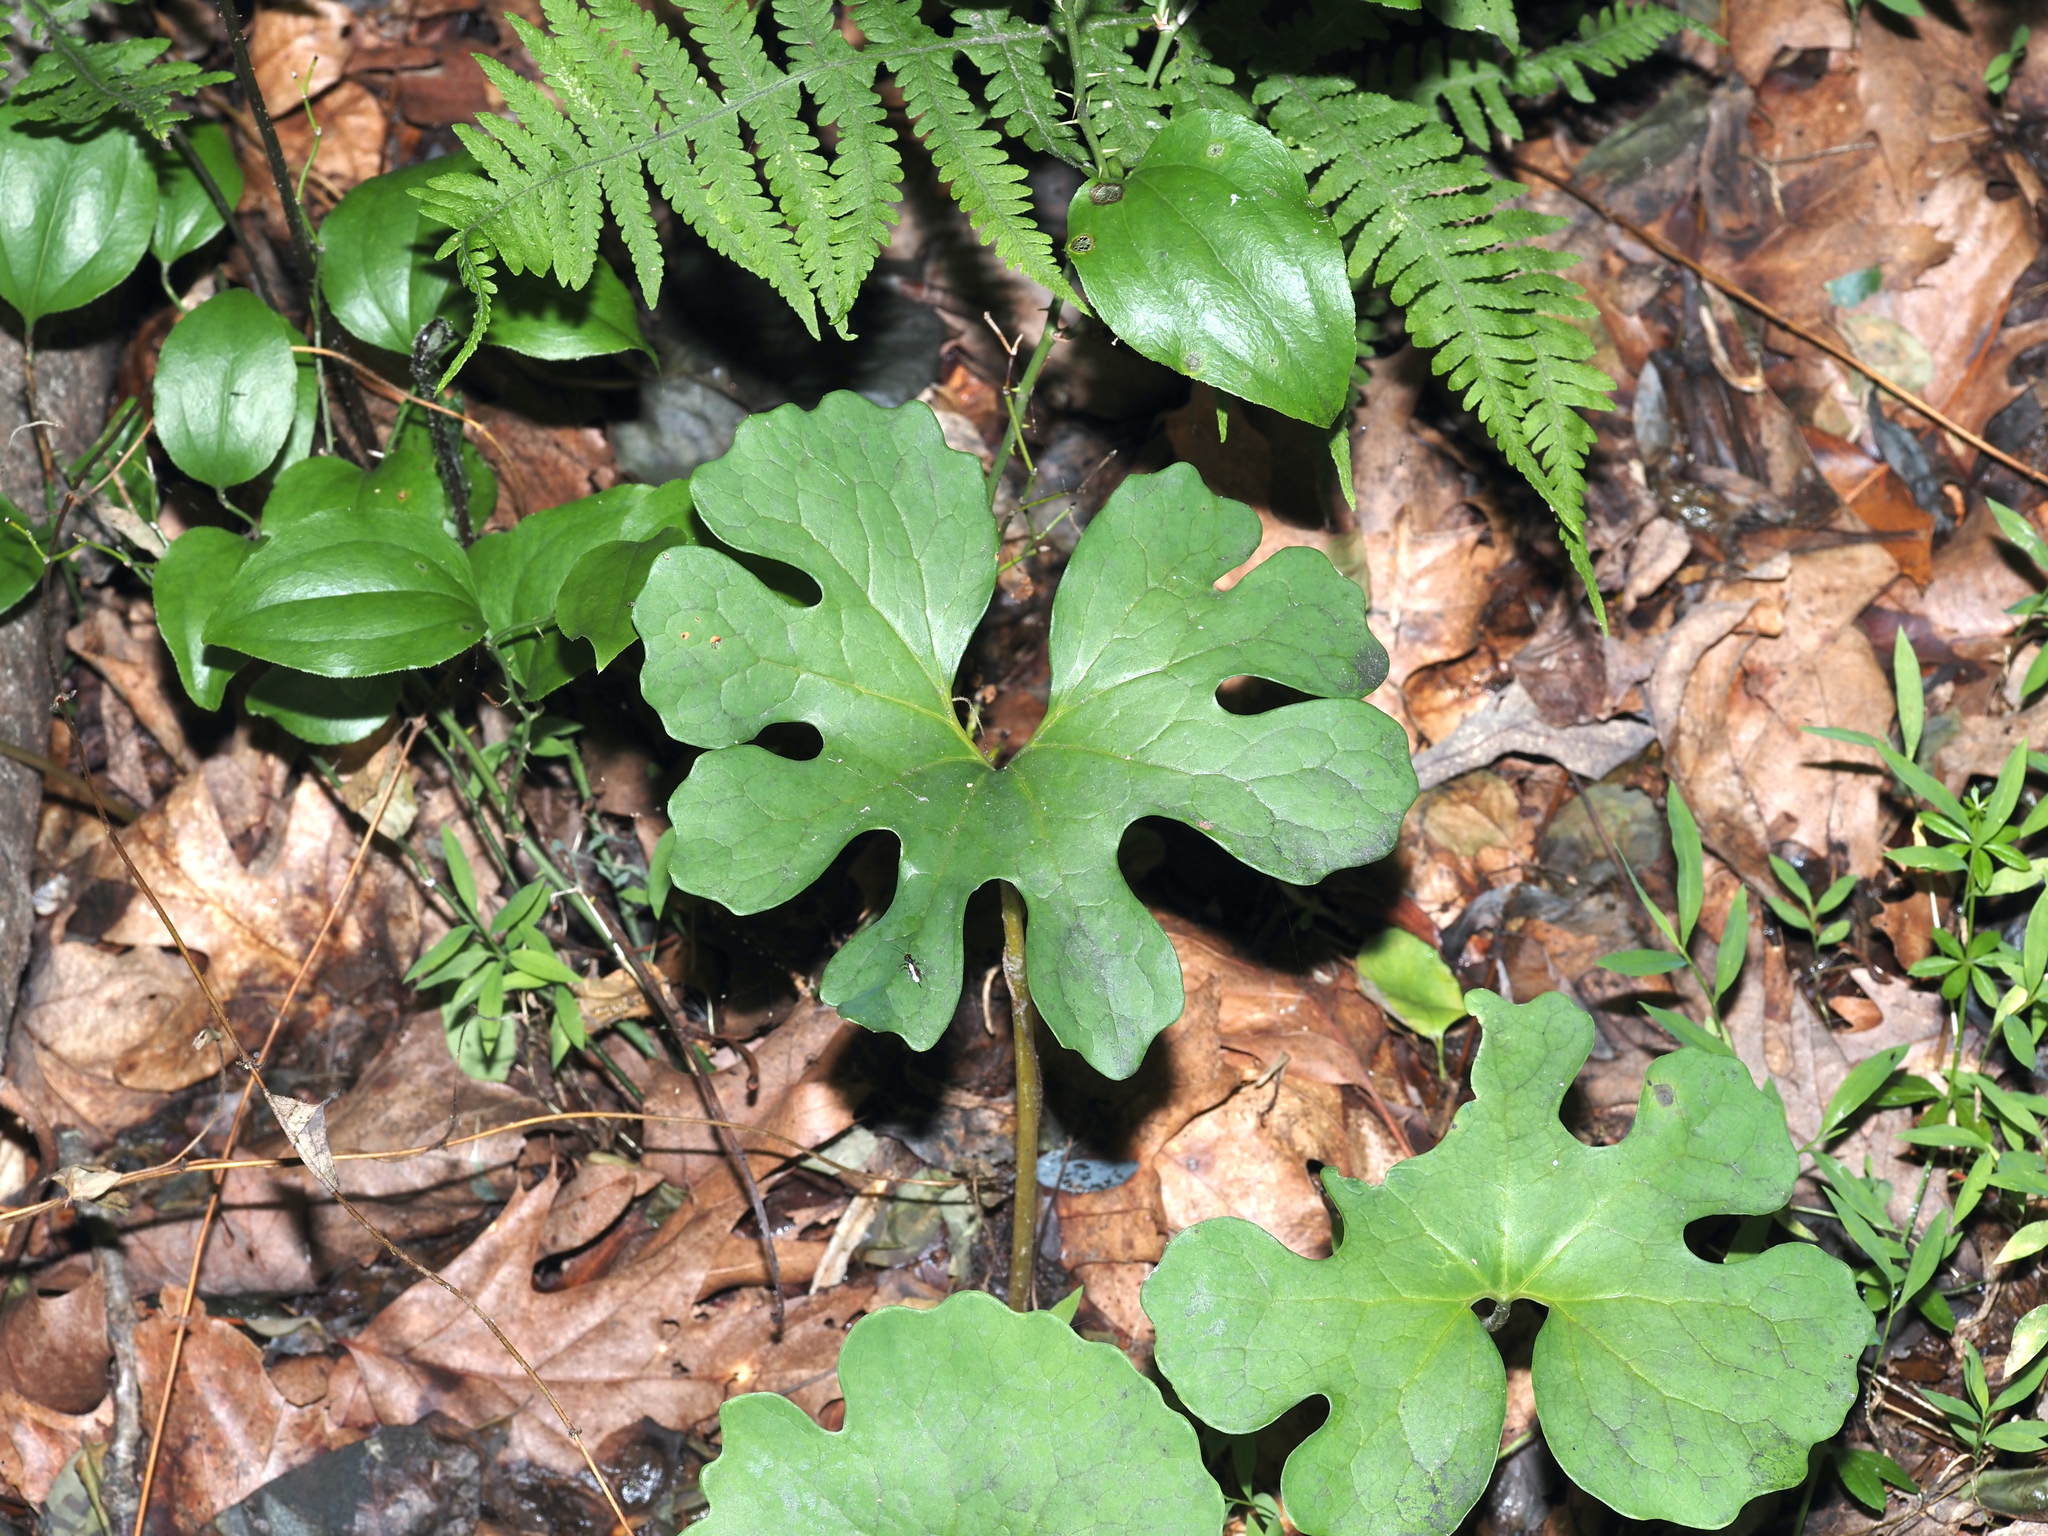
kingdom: Plantae
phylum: Tracheophyta
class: Magnoliopsida
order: Ranunculales
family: Papaveraceae
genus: Sanguinaria
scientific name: Sanguinaria canadensis
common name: Bloodroot
